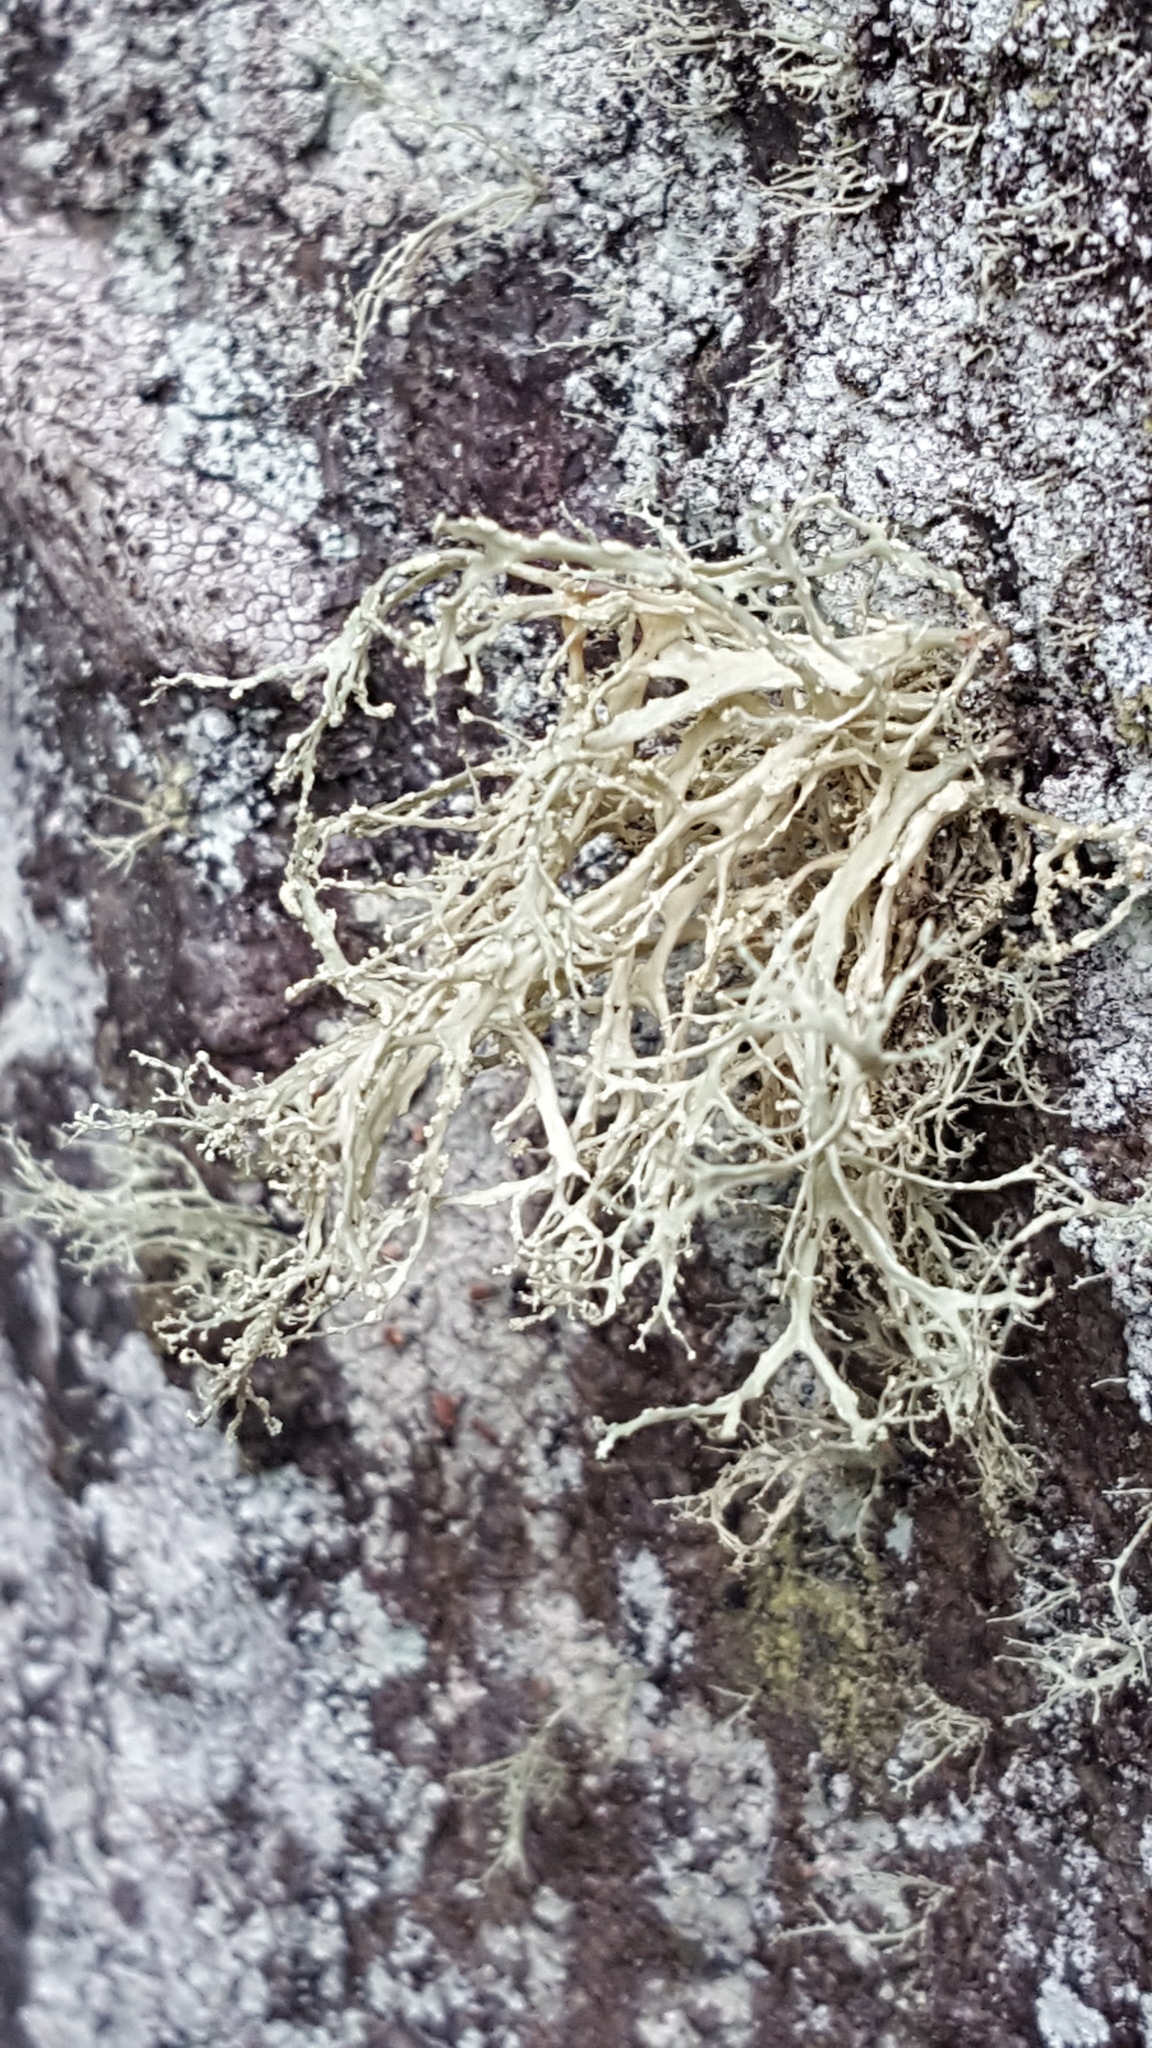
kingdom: Fungi
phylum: Ascomycota
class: Lecanoromycetes
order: Lecanorales
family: Ramalinaceae
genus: Ramalina
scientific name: Ramalina intermedia
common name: Rock bushy lichen
